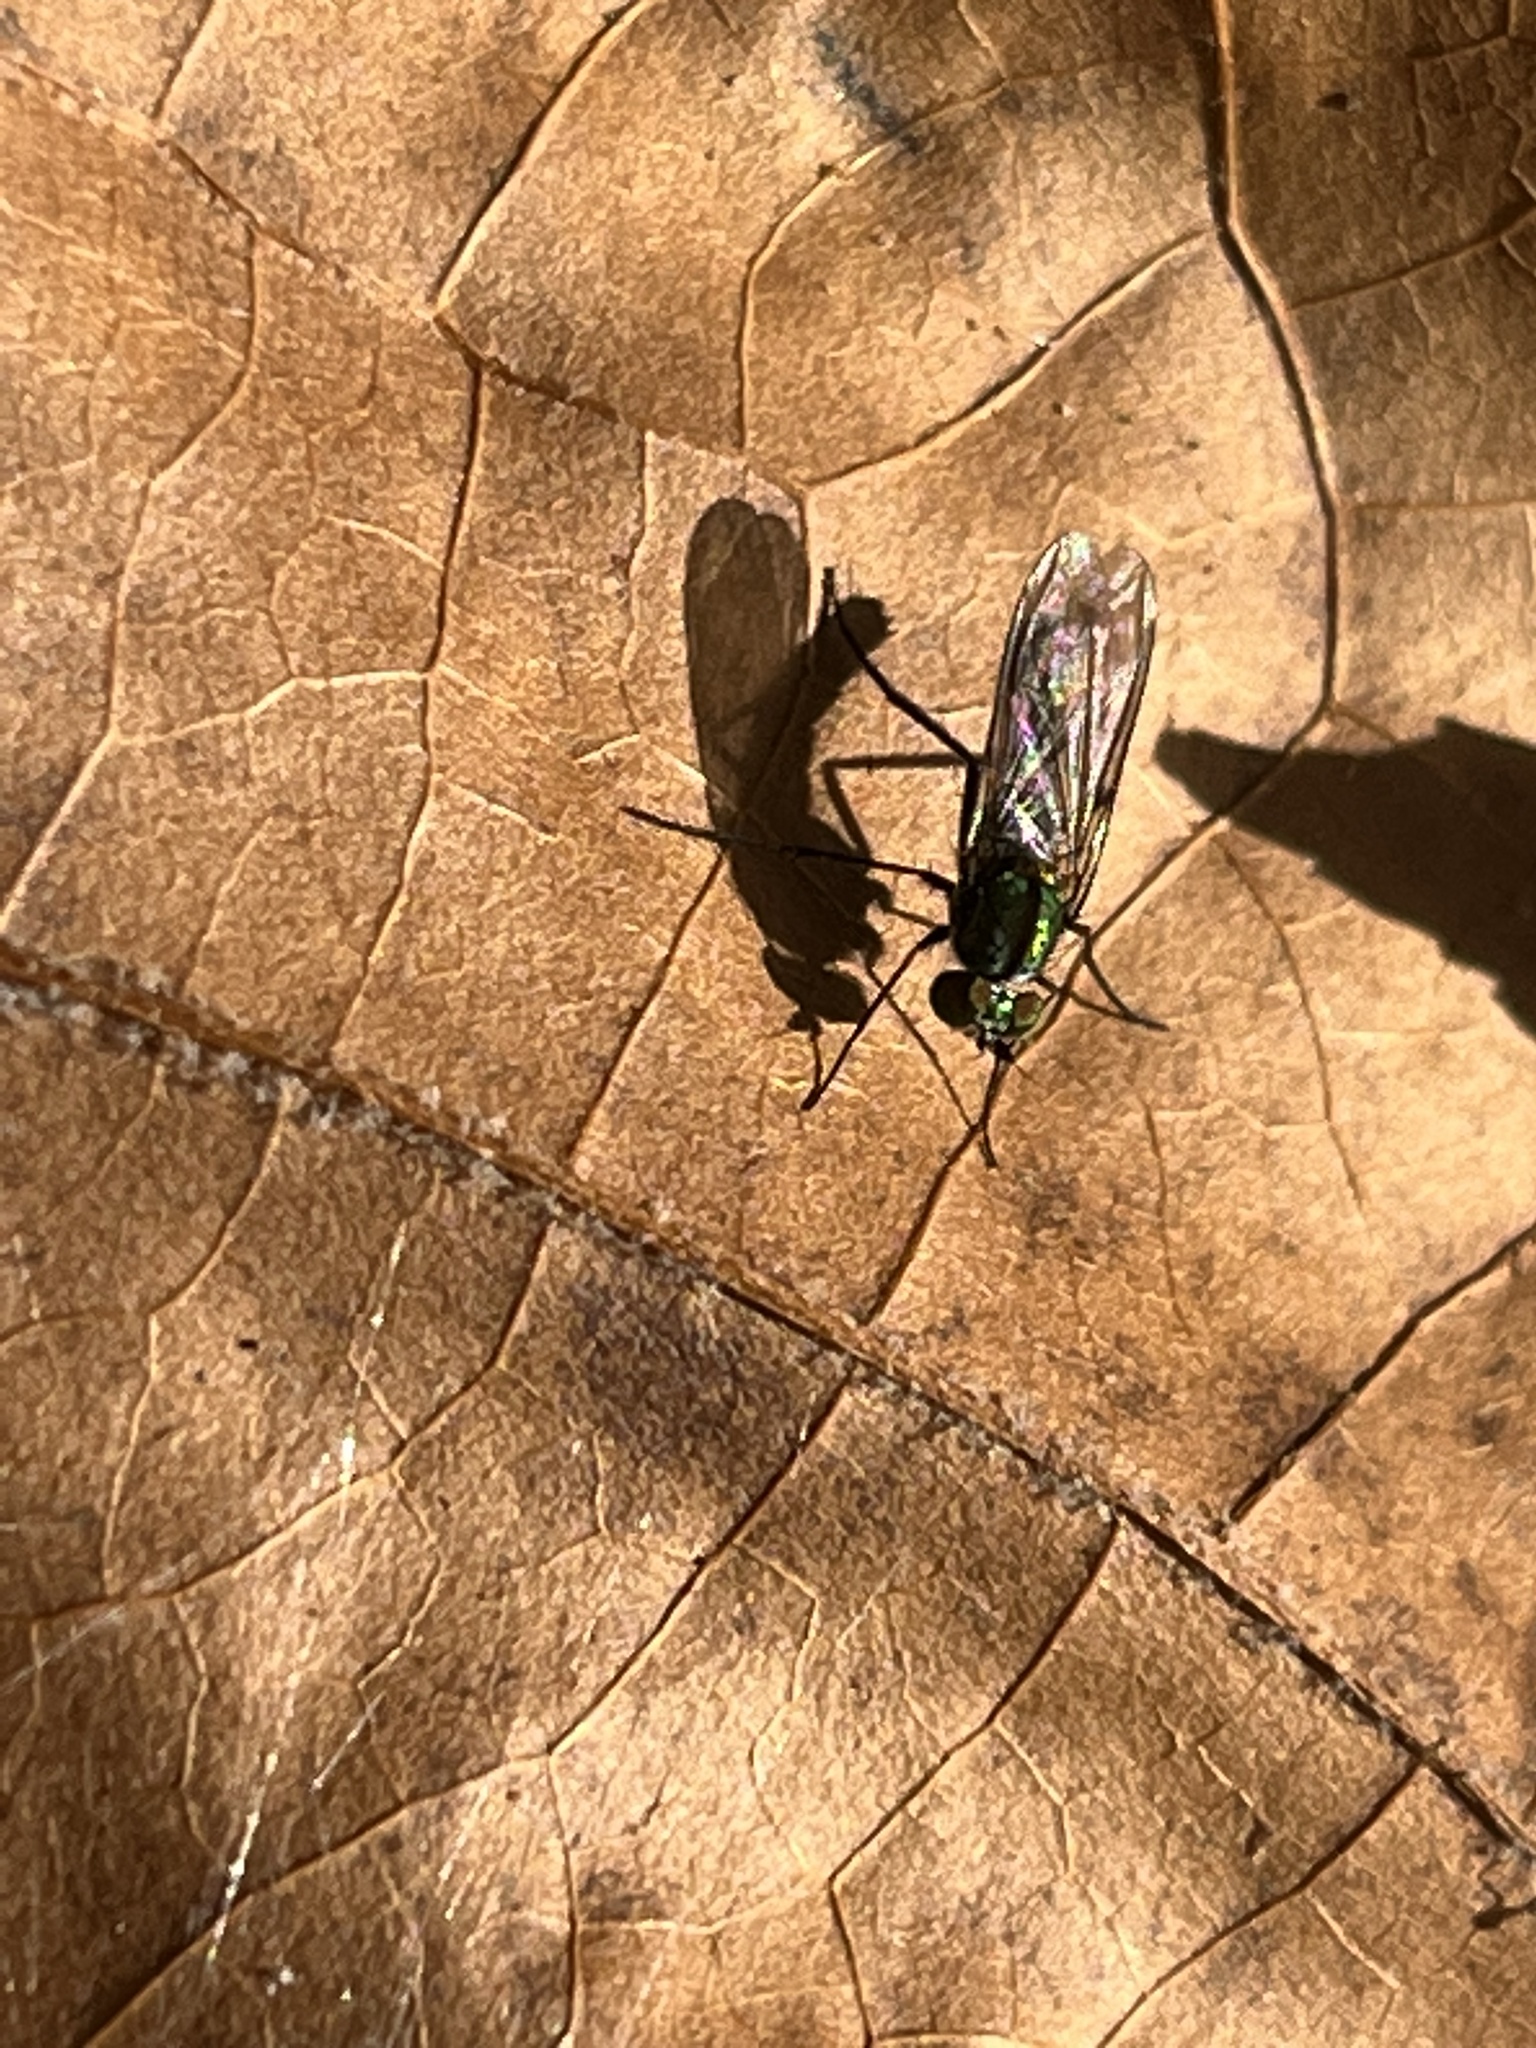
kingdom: Animalia
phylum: Arthropoda
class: Insecta
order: Diptera
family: Dolichopodidae
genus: Plagioneurus
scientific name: Plagioneurus univittatus
